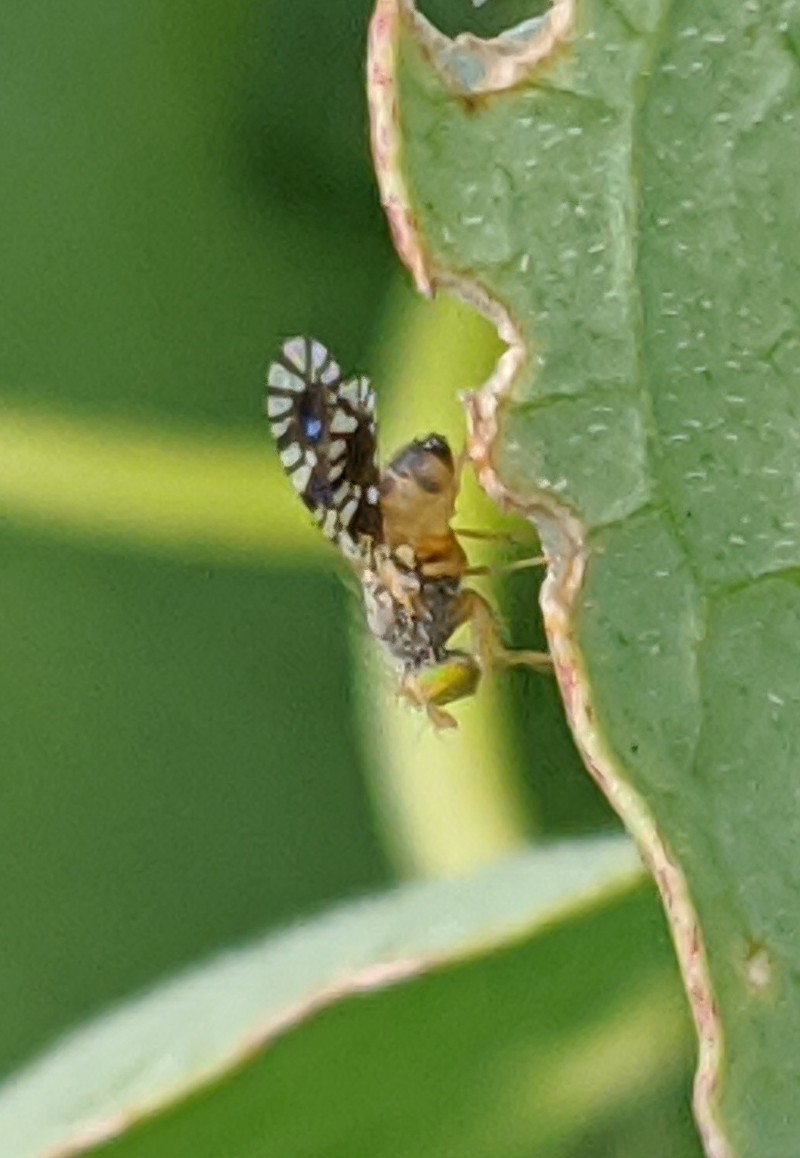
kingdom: Animalia
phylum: Arthropoda
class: Insecta
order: Diptera
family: Tephritidae
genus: Euaresta
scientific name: Euaresta bella
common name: Common ragweed fruit fly
